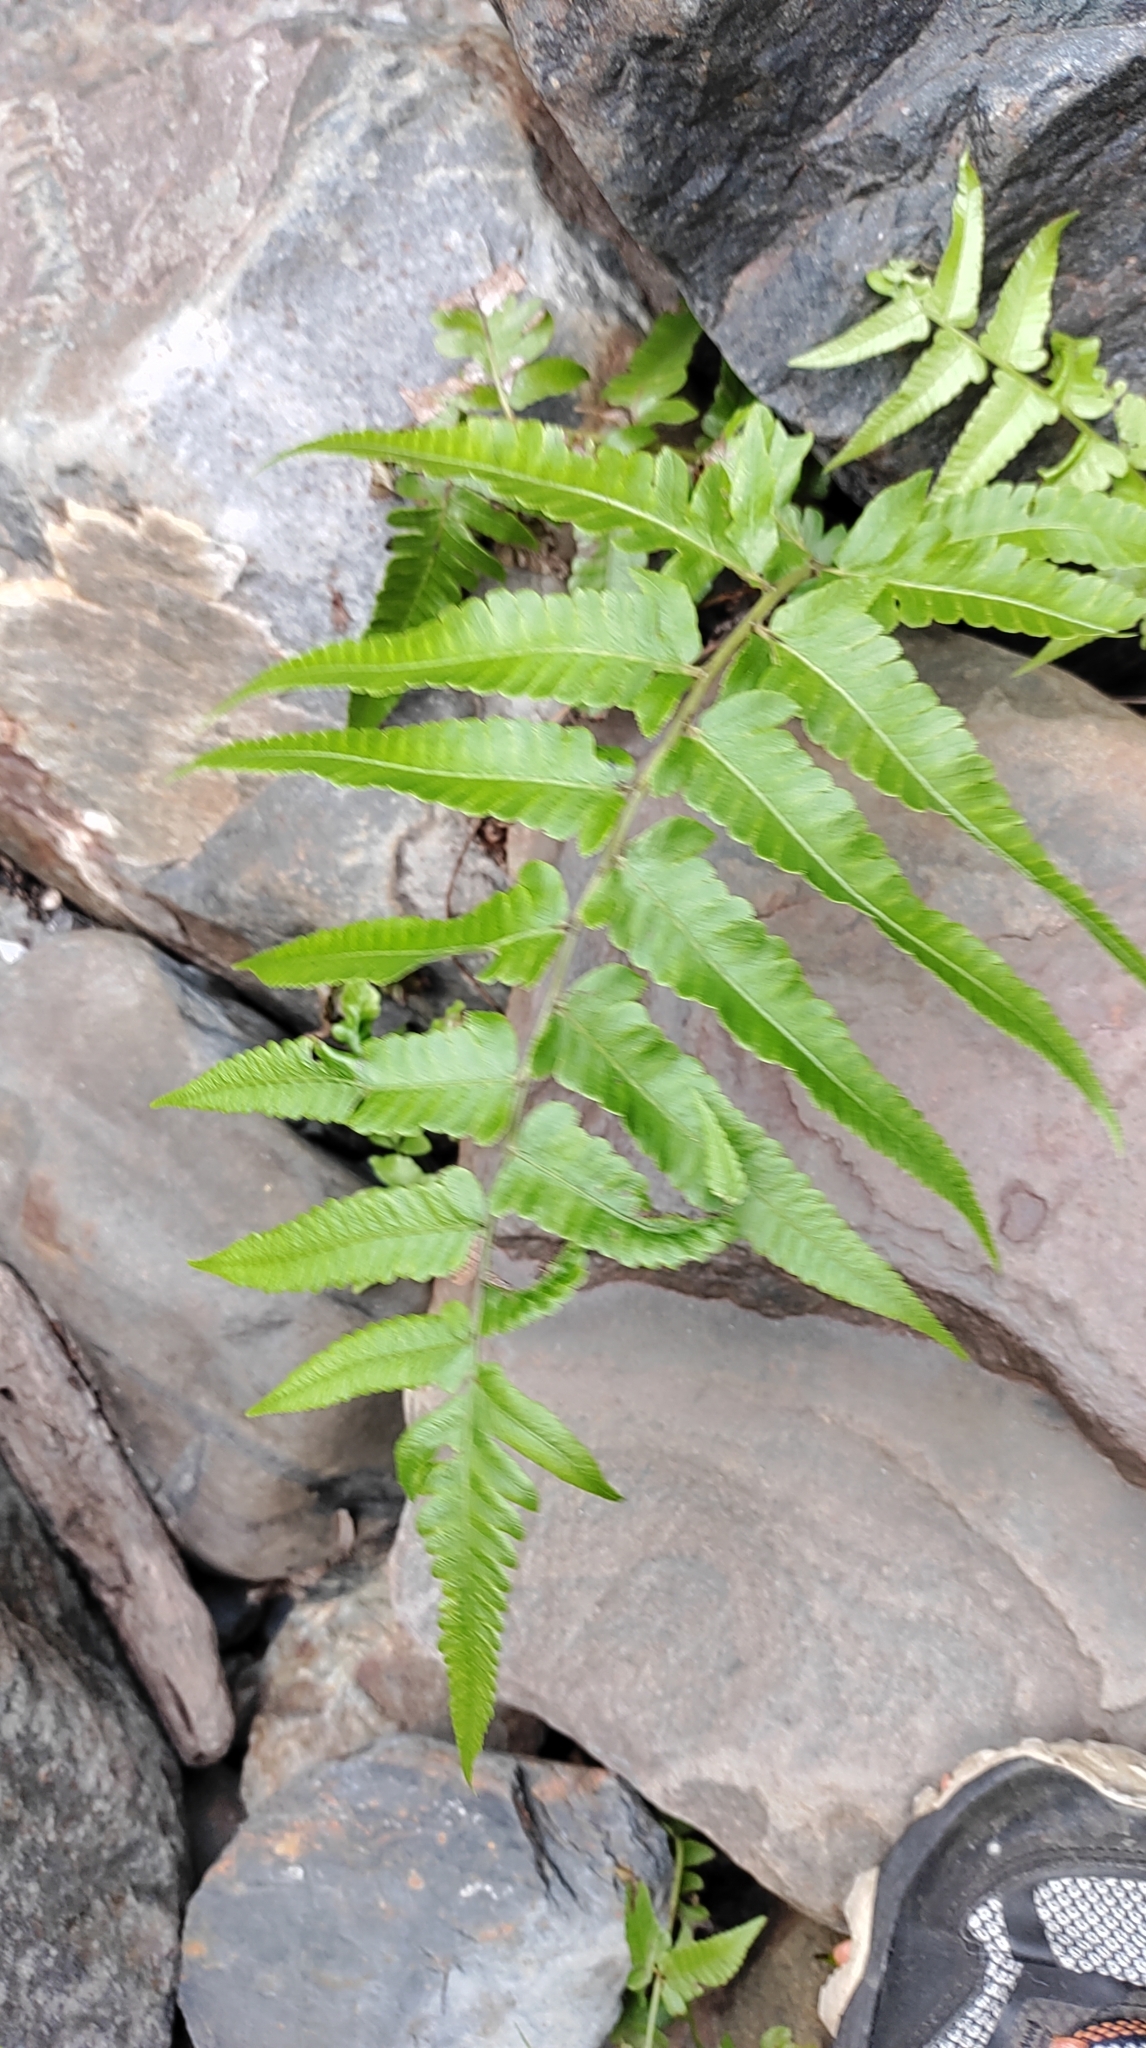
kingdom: Plantae
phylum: Tracheophyta
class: Polypodiopsida
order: Polypodiales
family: Athyriaceae
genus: Diplazium
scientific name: Diplazium esculentum
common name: Vegetable fern
